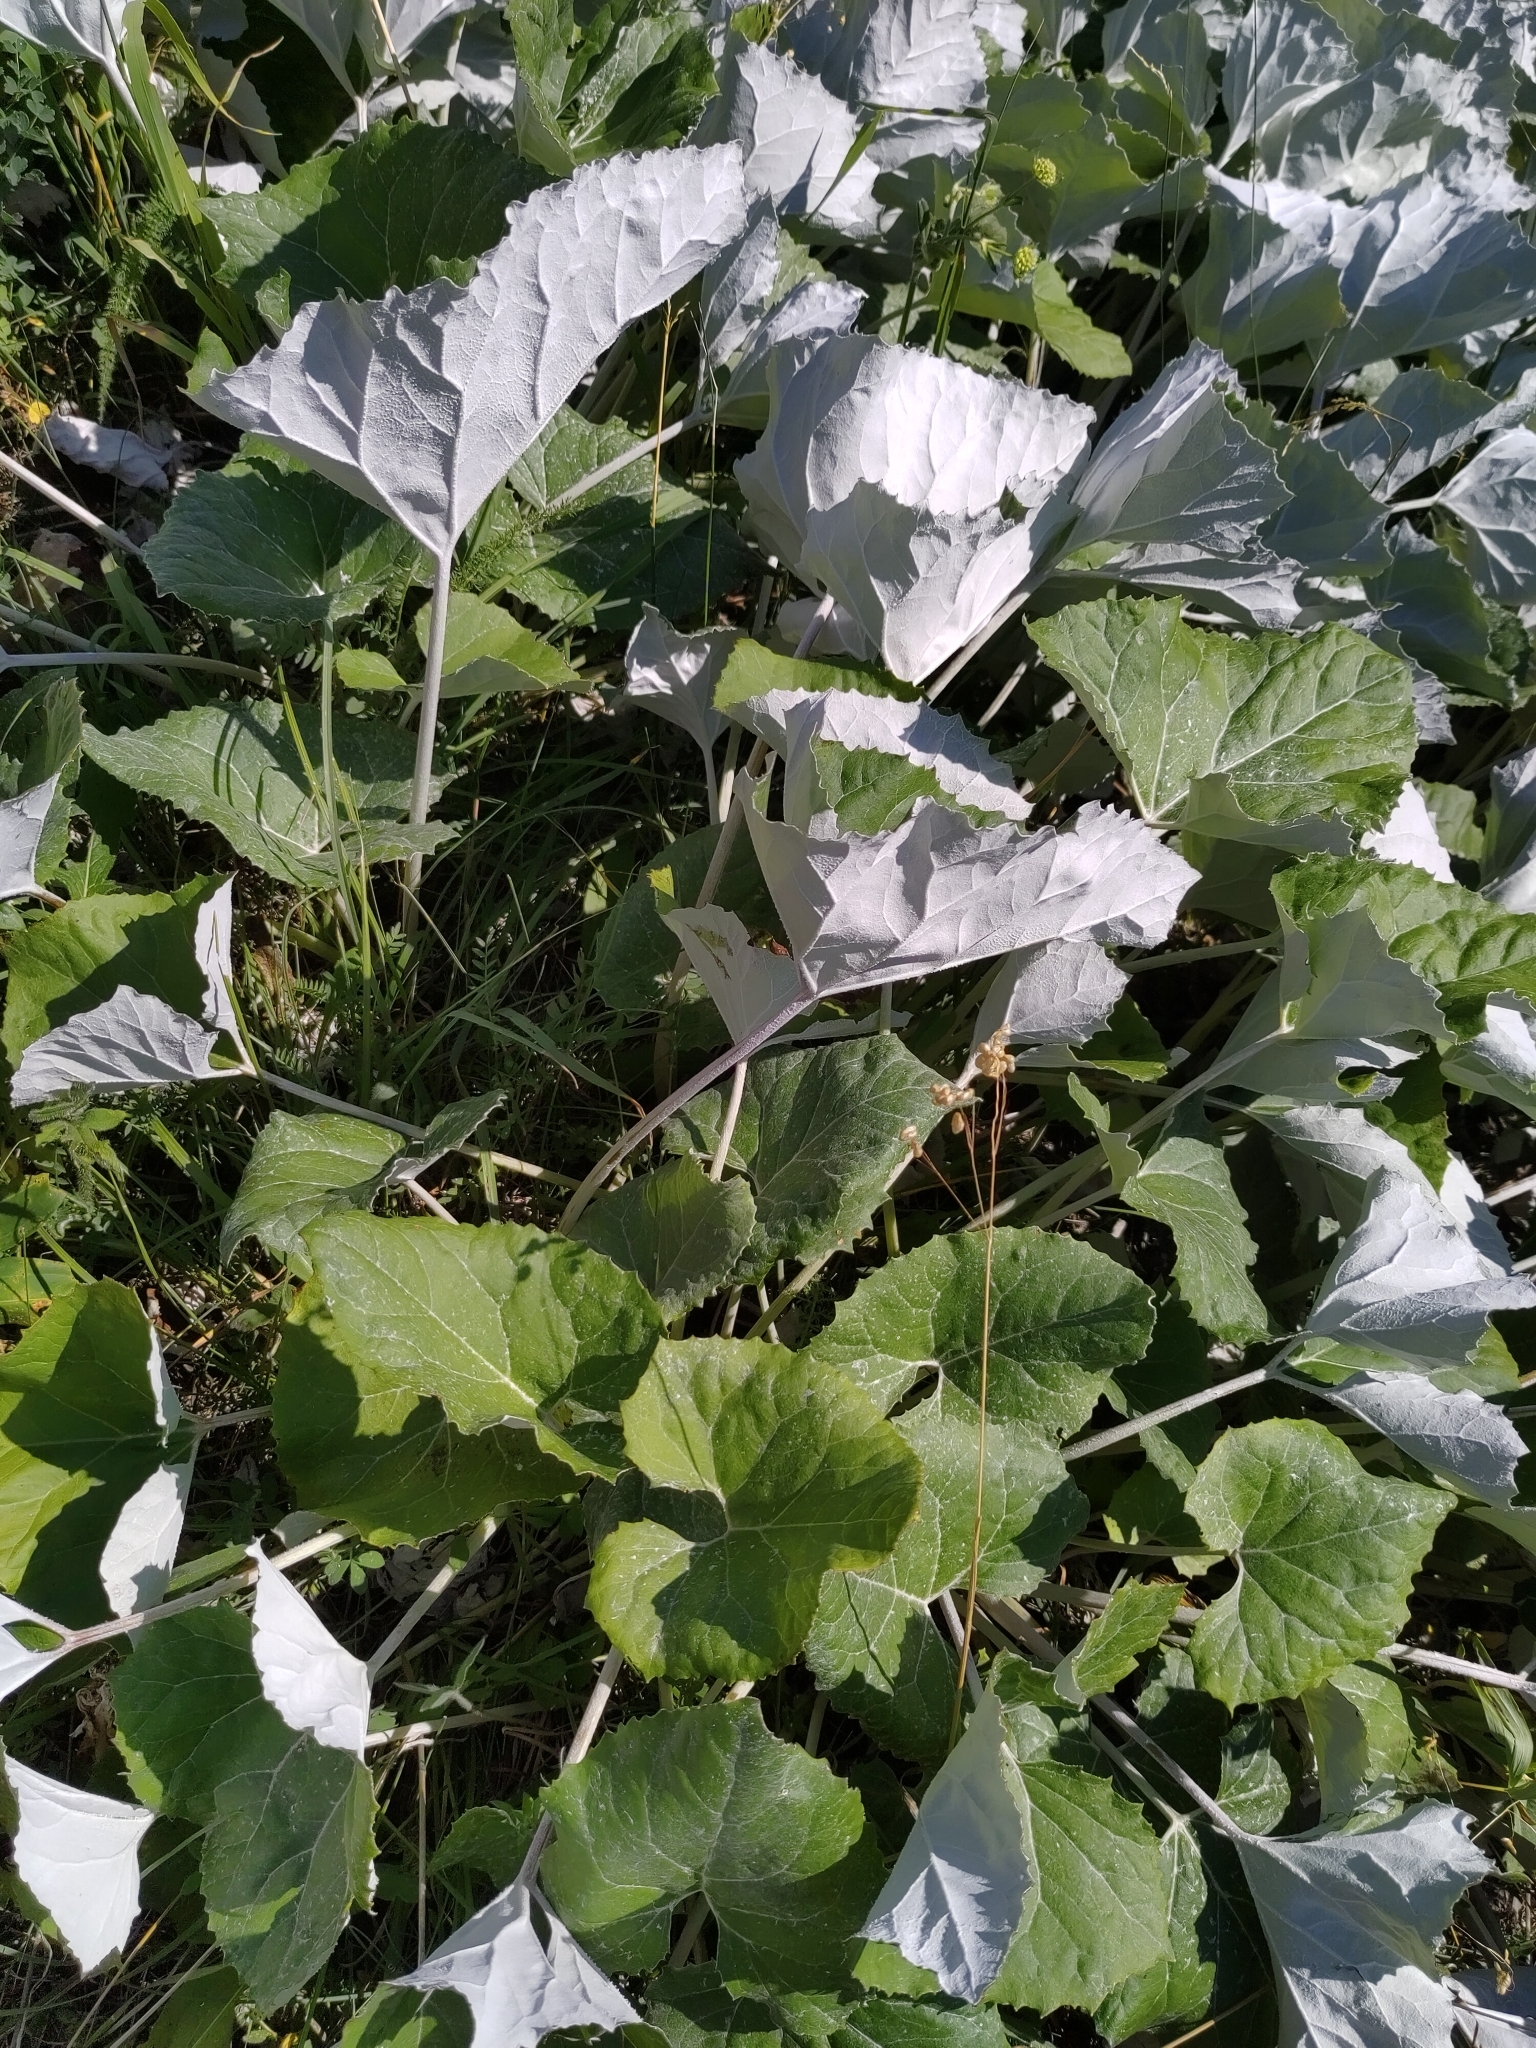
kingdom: Plantae
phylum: Tracheophyta
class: Magnoliopsida
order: Asterales
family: Asteraceae
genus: Tussilago
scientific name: Tussilago farfara
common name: Coltsfoot
